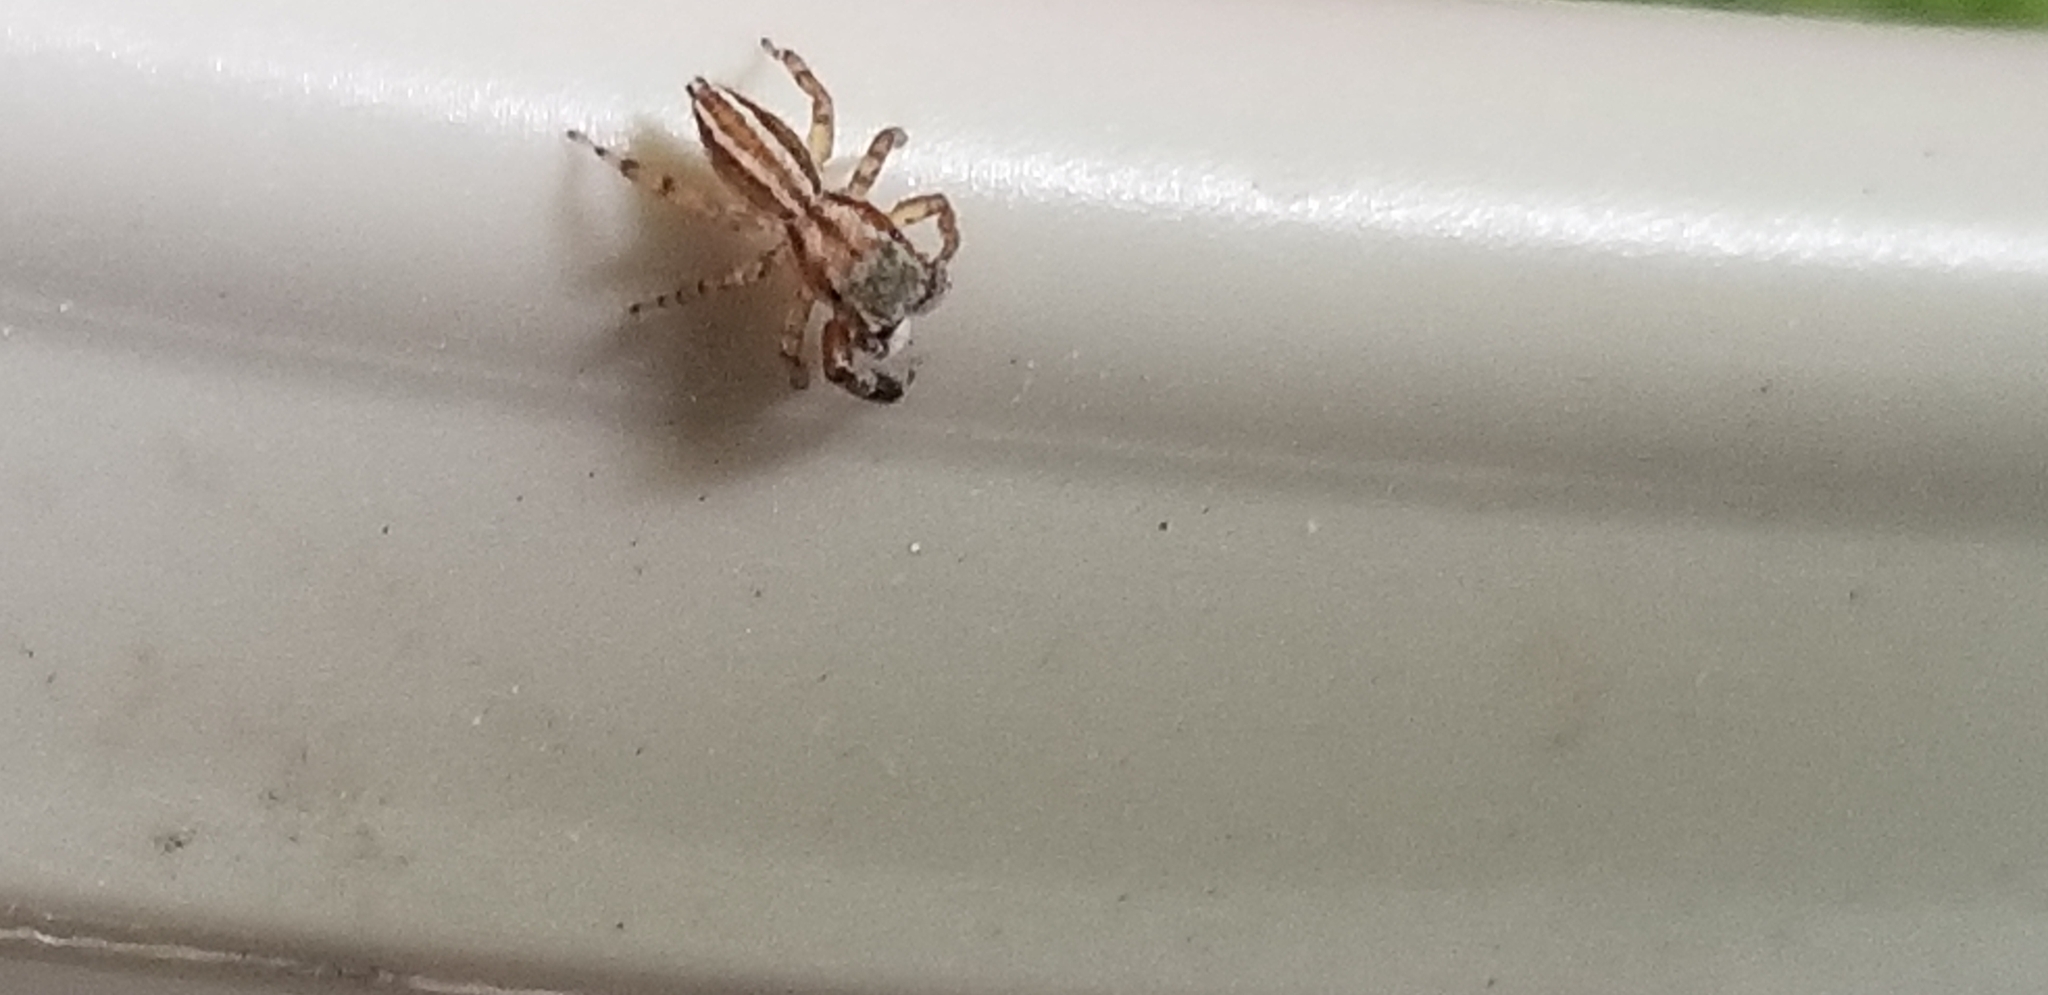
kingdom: Animalia
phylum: Arthropoda
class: Arachnida
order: Araneae
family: Salticidae
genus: Marpissa
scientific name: Marpissa lineata
